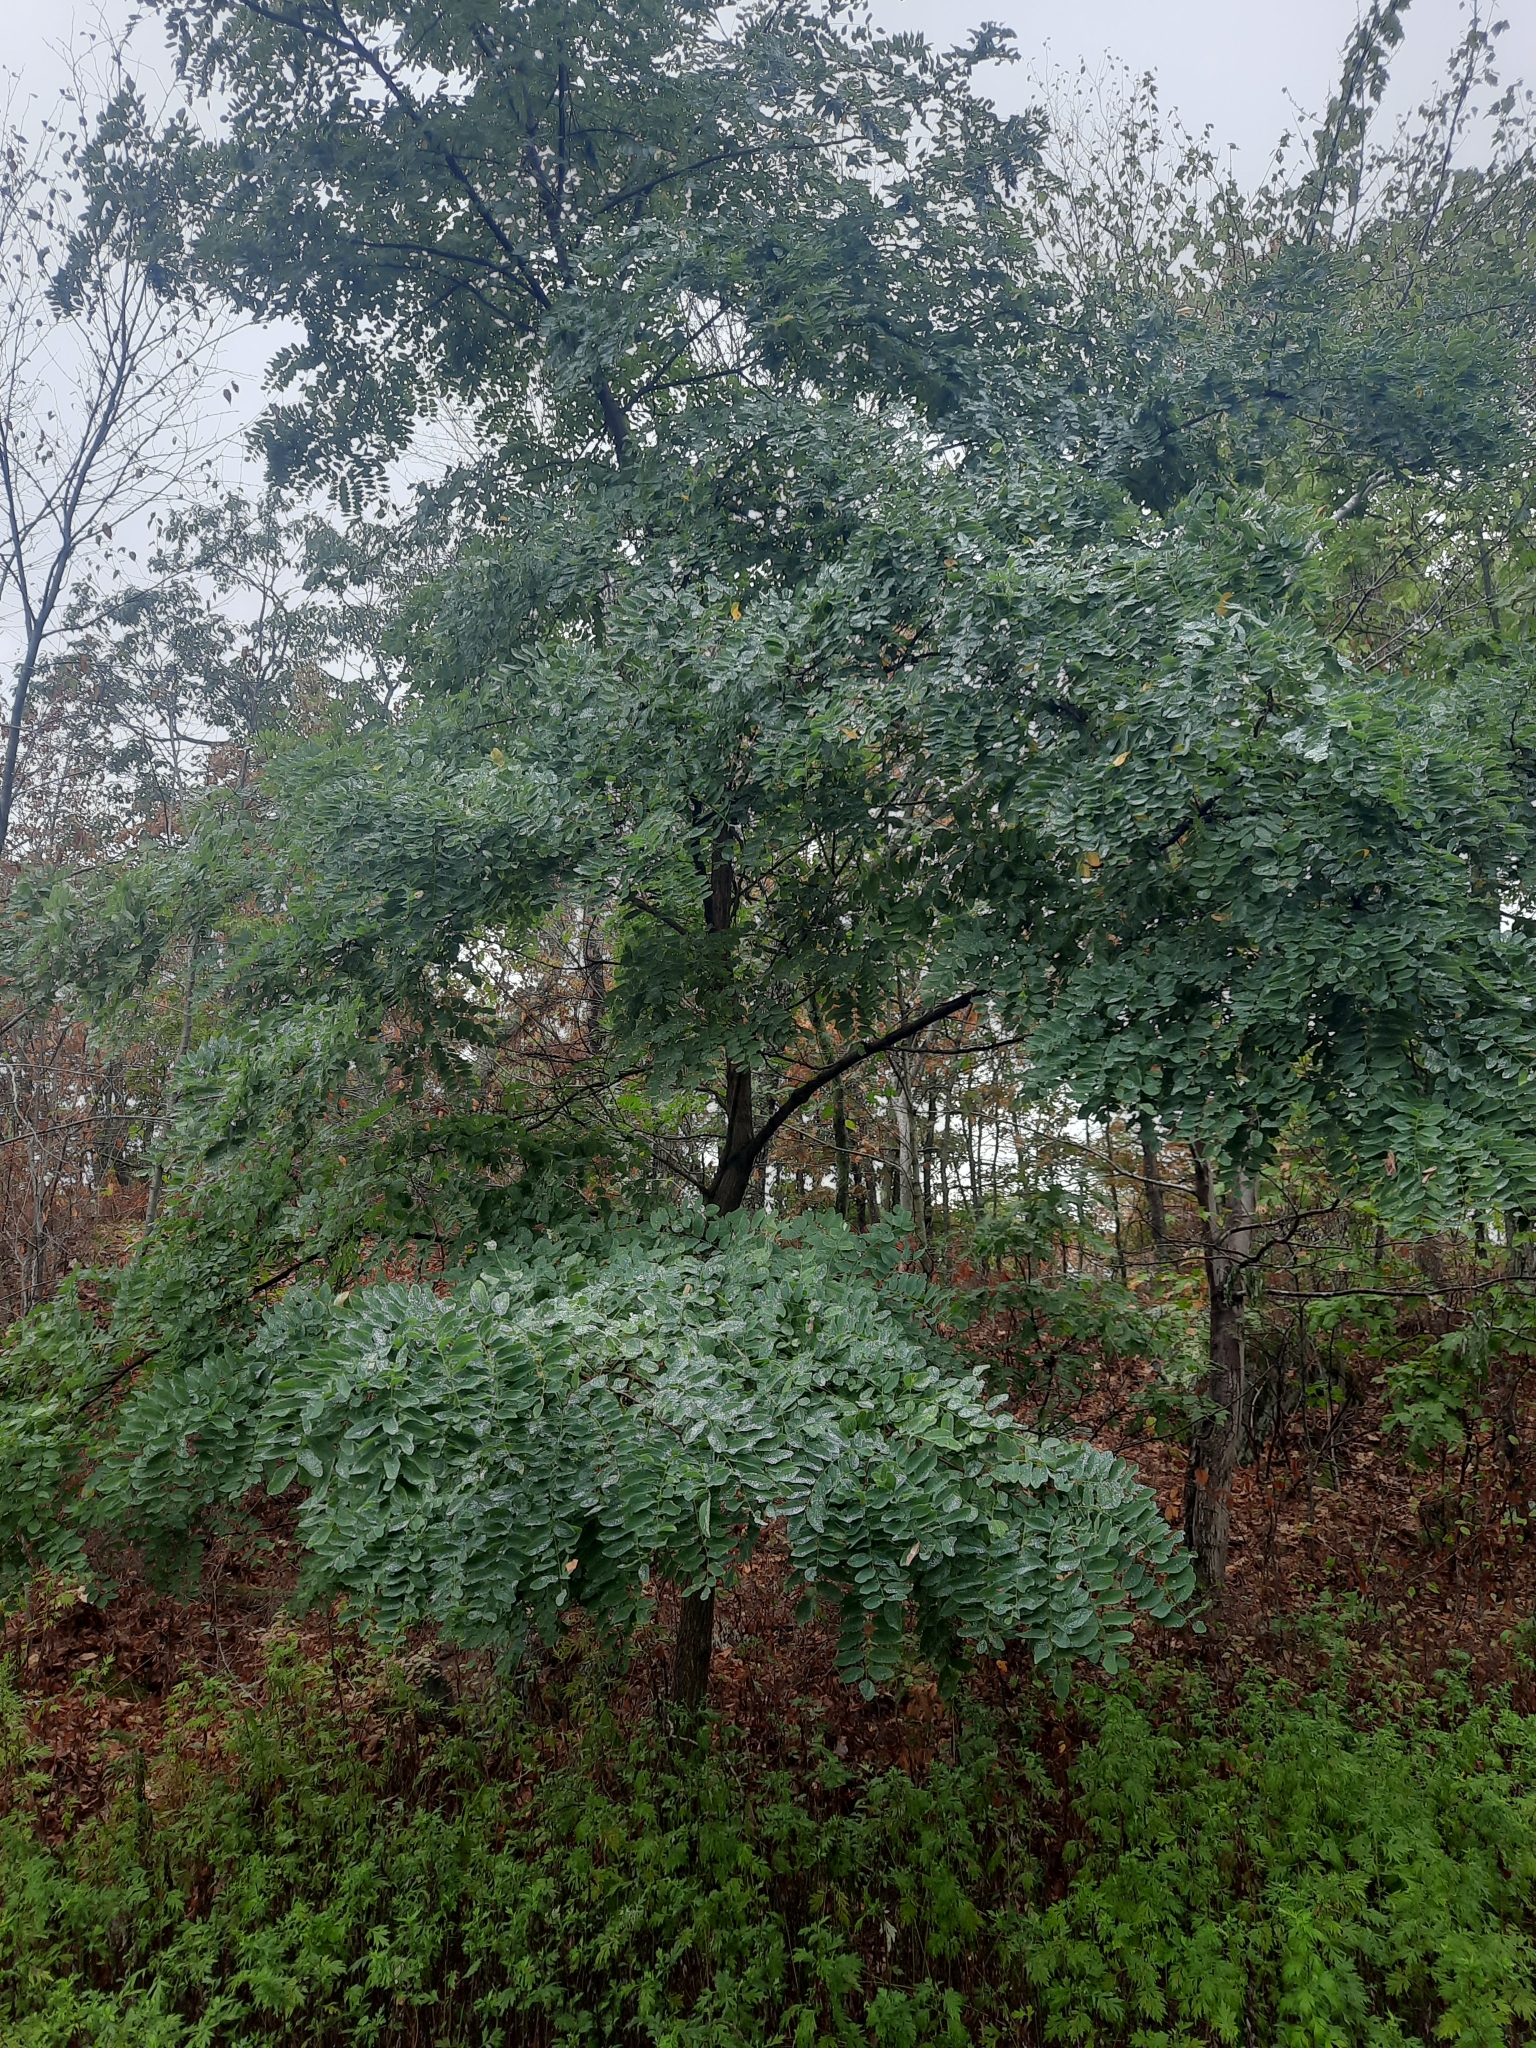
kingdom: Plantae
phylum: Tracheophyta
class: Magnoliopsida
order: Fabales
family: Fabaceae
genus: Robinia
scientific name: Robinia pseudoacacia
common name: Black locust
